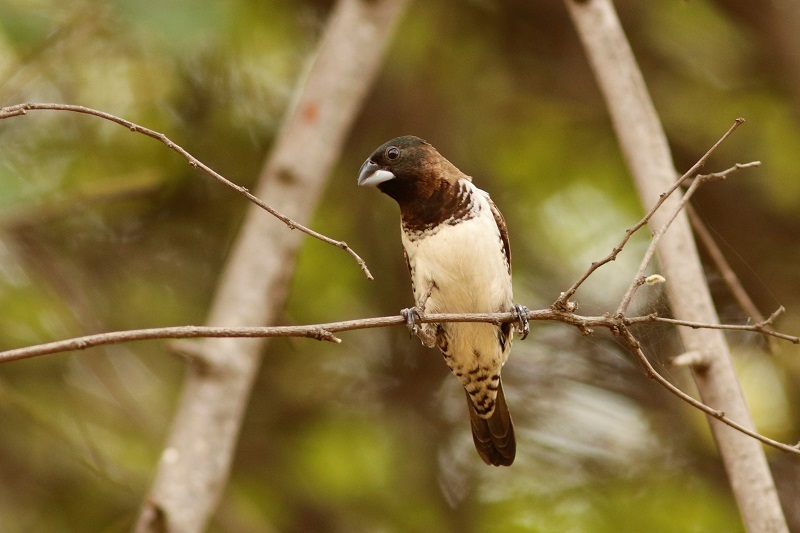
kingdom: Animalia
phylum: Chordata
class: Aves
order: Passeriformes
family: Estrildidae
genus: Lonchura
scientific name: Lonchura cucullata
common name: Bronze mannikin
